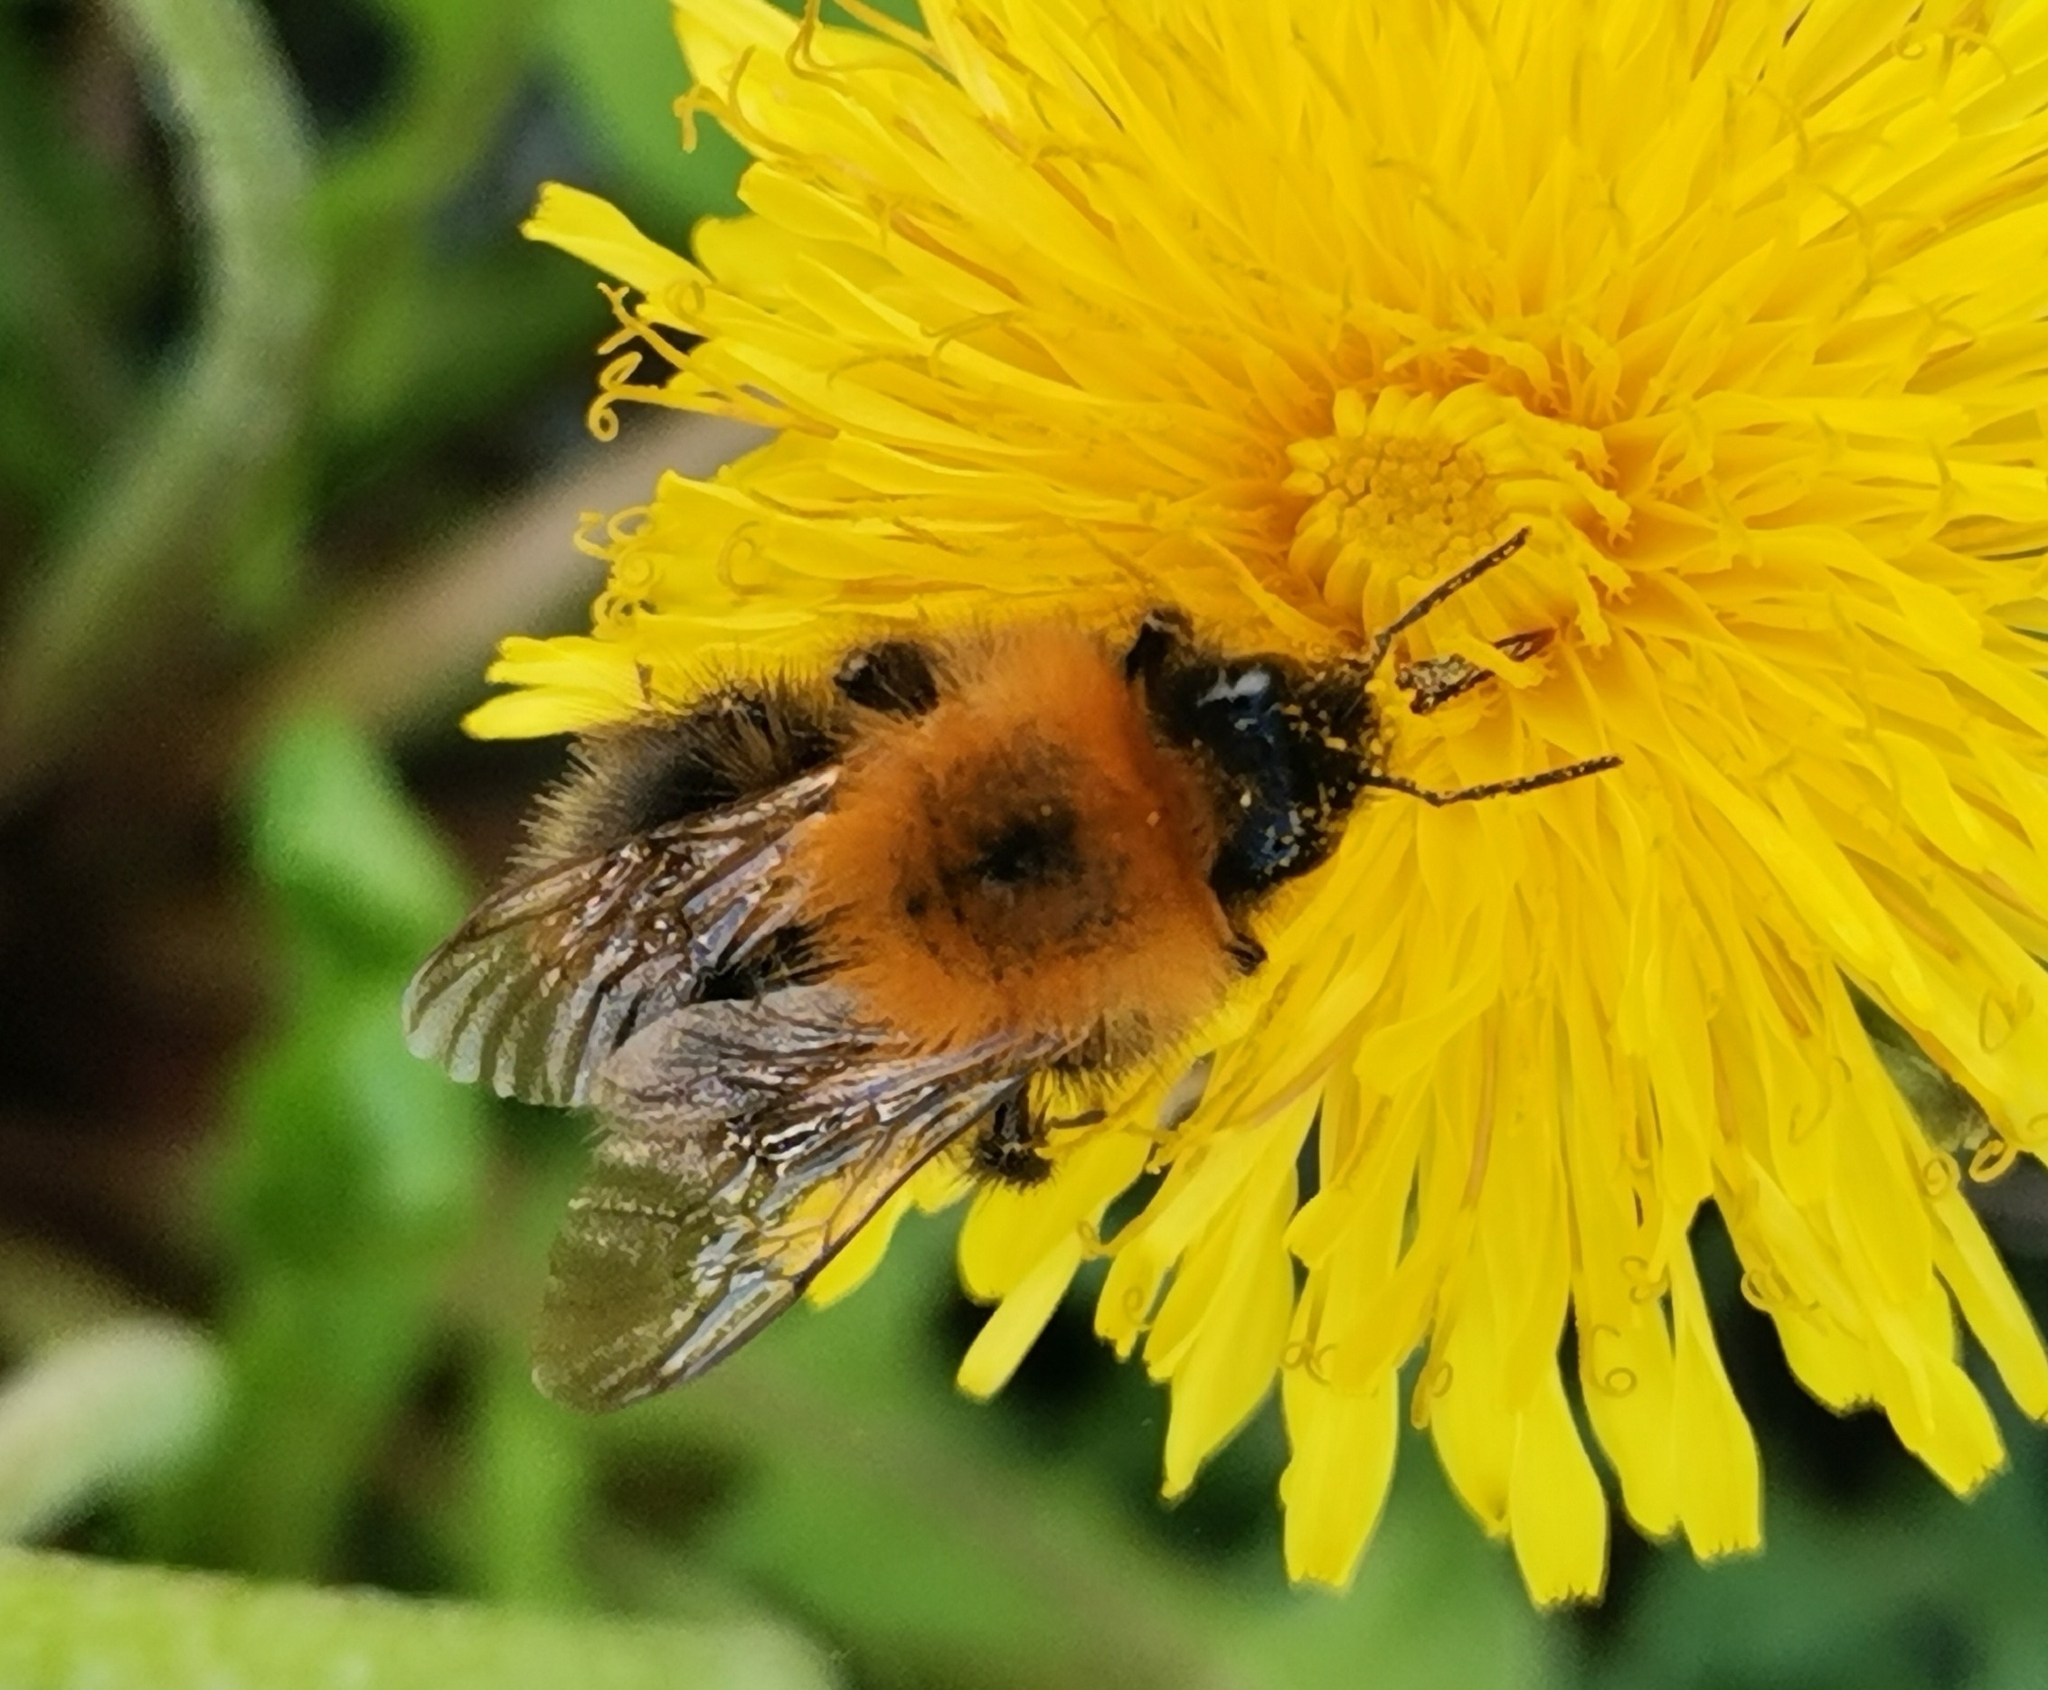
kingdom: Animalia
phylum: Arthropoda
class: Insecta
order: Hymenoptera
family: Apidae
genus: Bombus
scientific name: Bombus hypnorum
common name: New garden bumblebee
